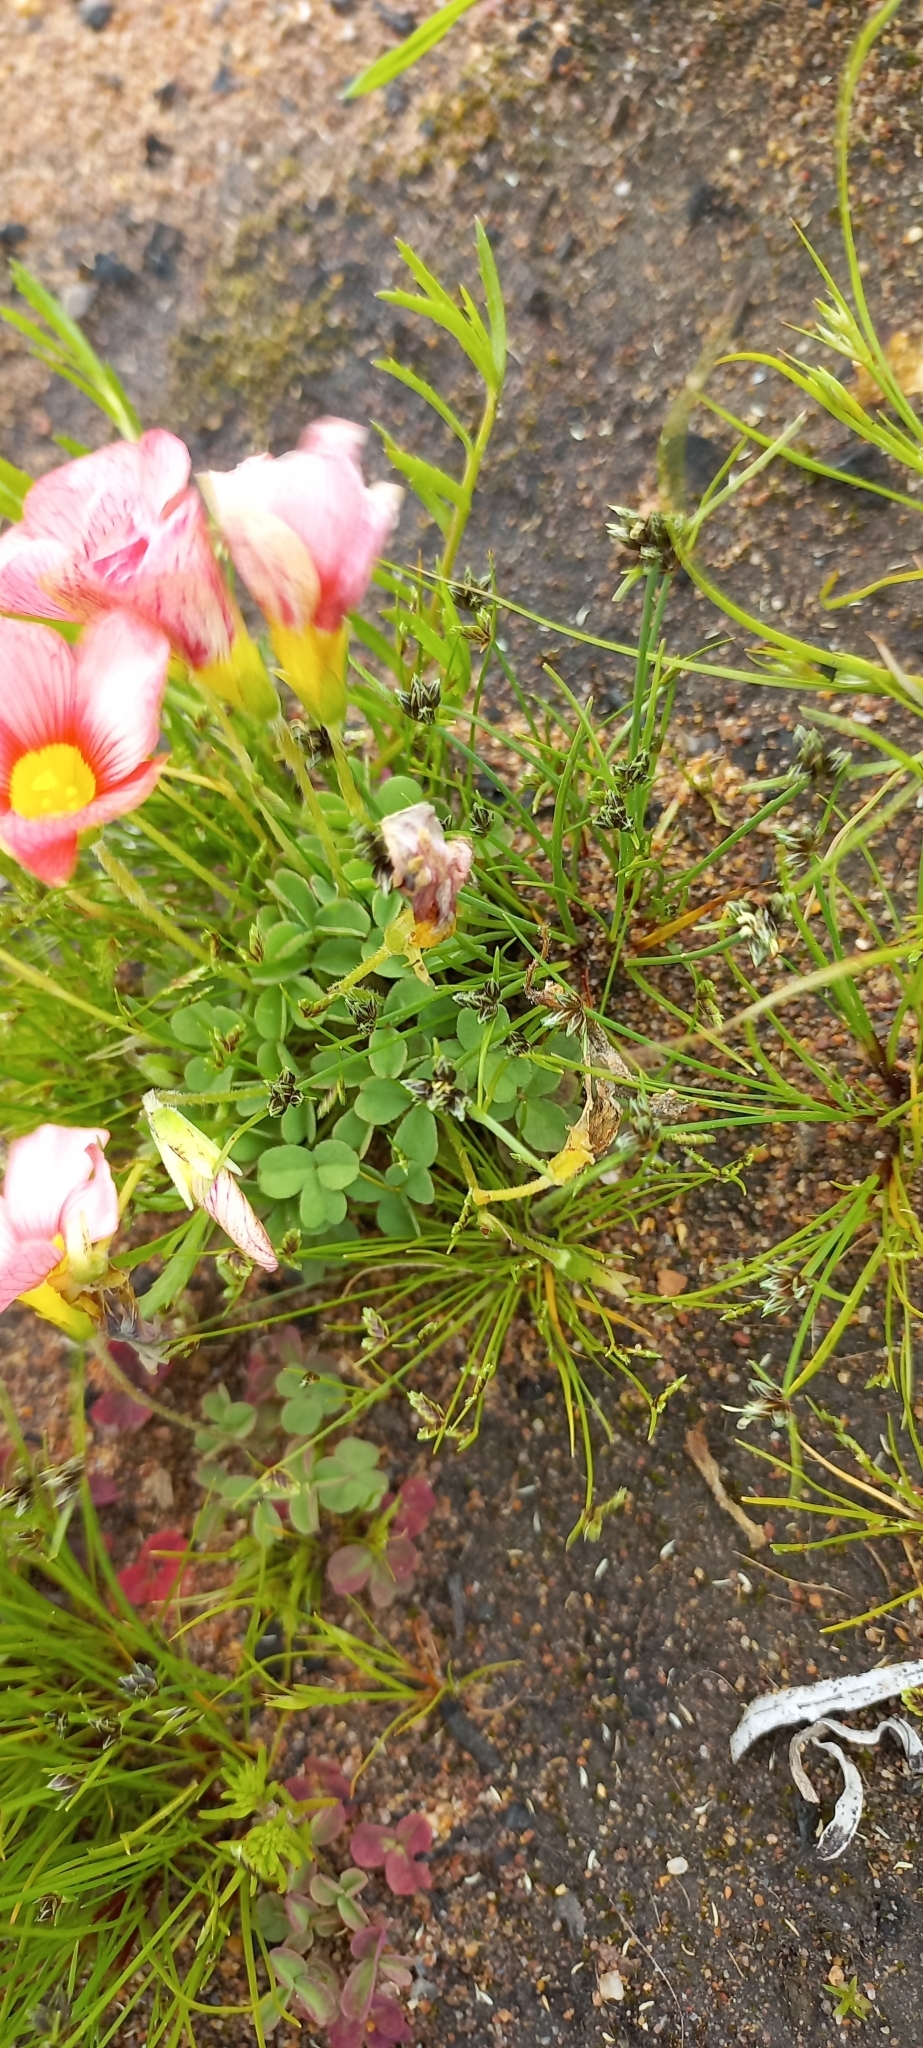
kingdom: Plantae
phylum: Tracheophyta
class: Magnoliopsida
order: Oxalidales
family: Oxalidaceae
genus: Oxalis
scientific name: Oxalis obtusa
